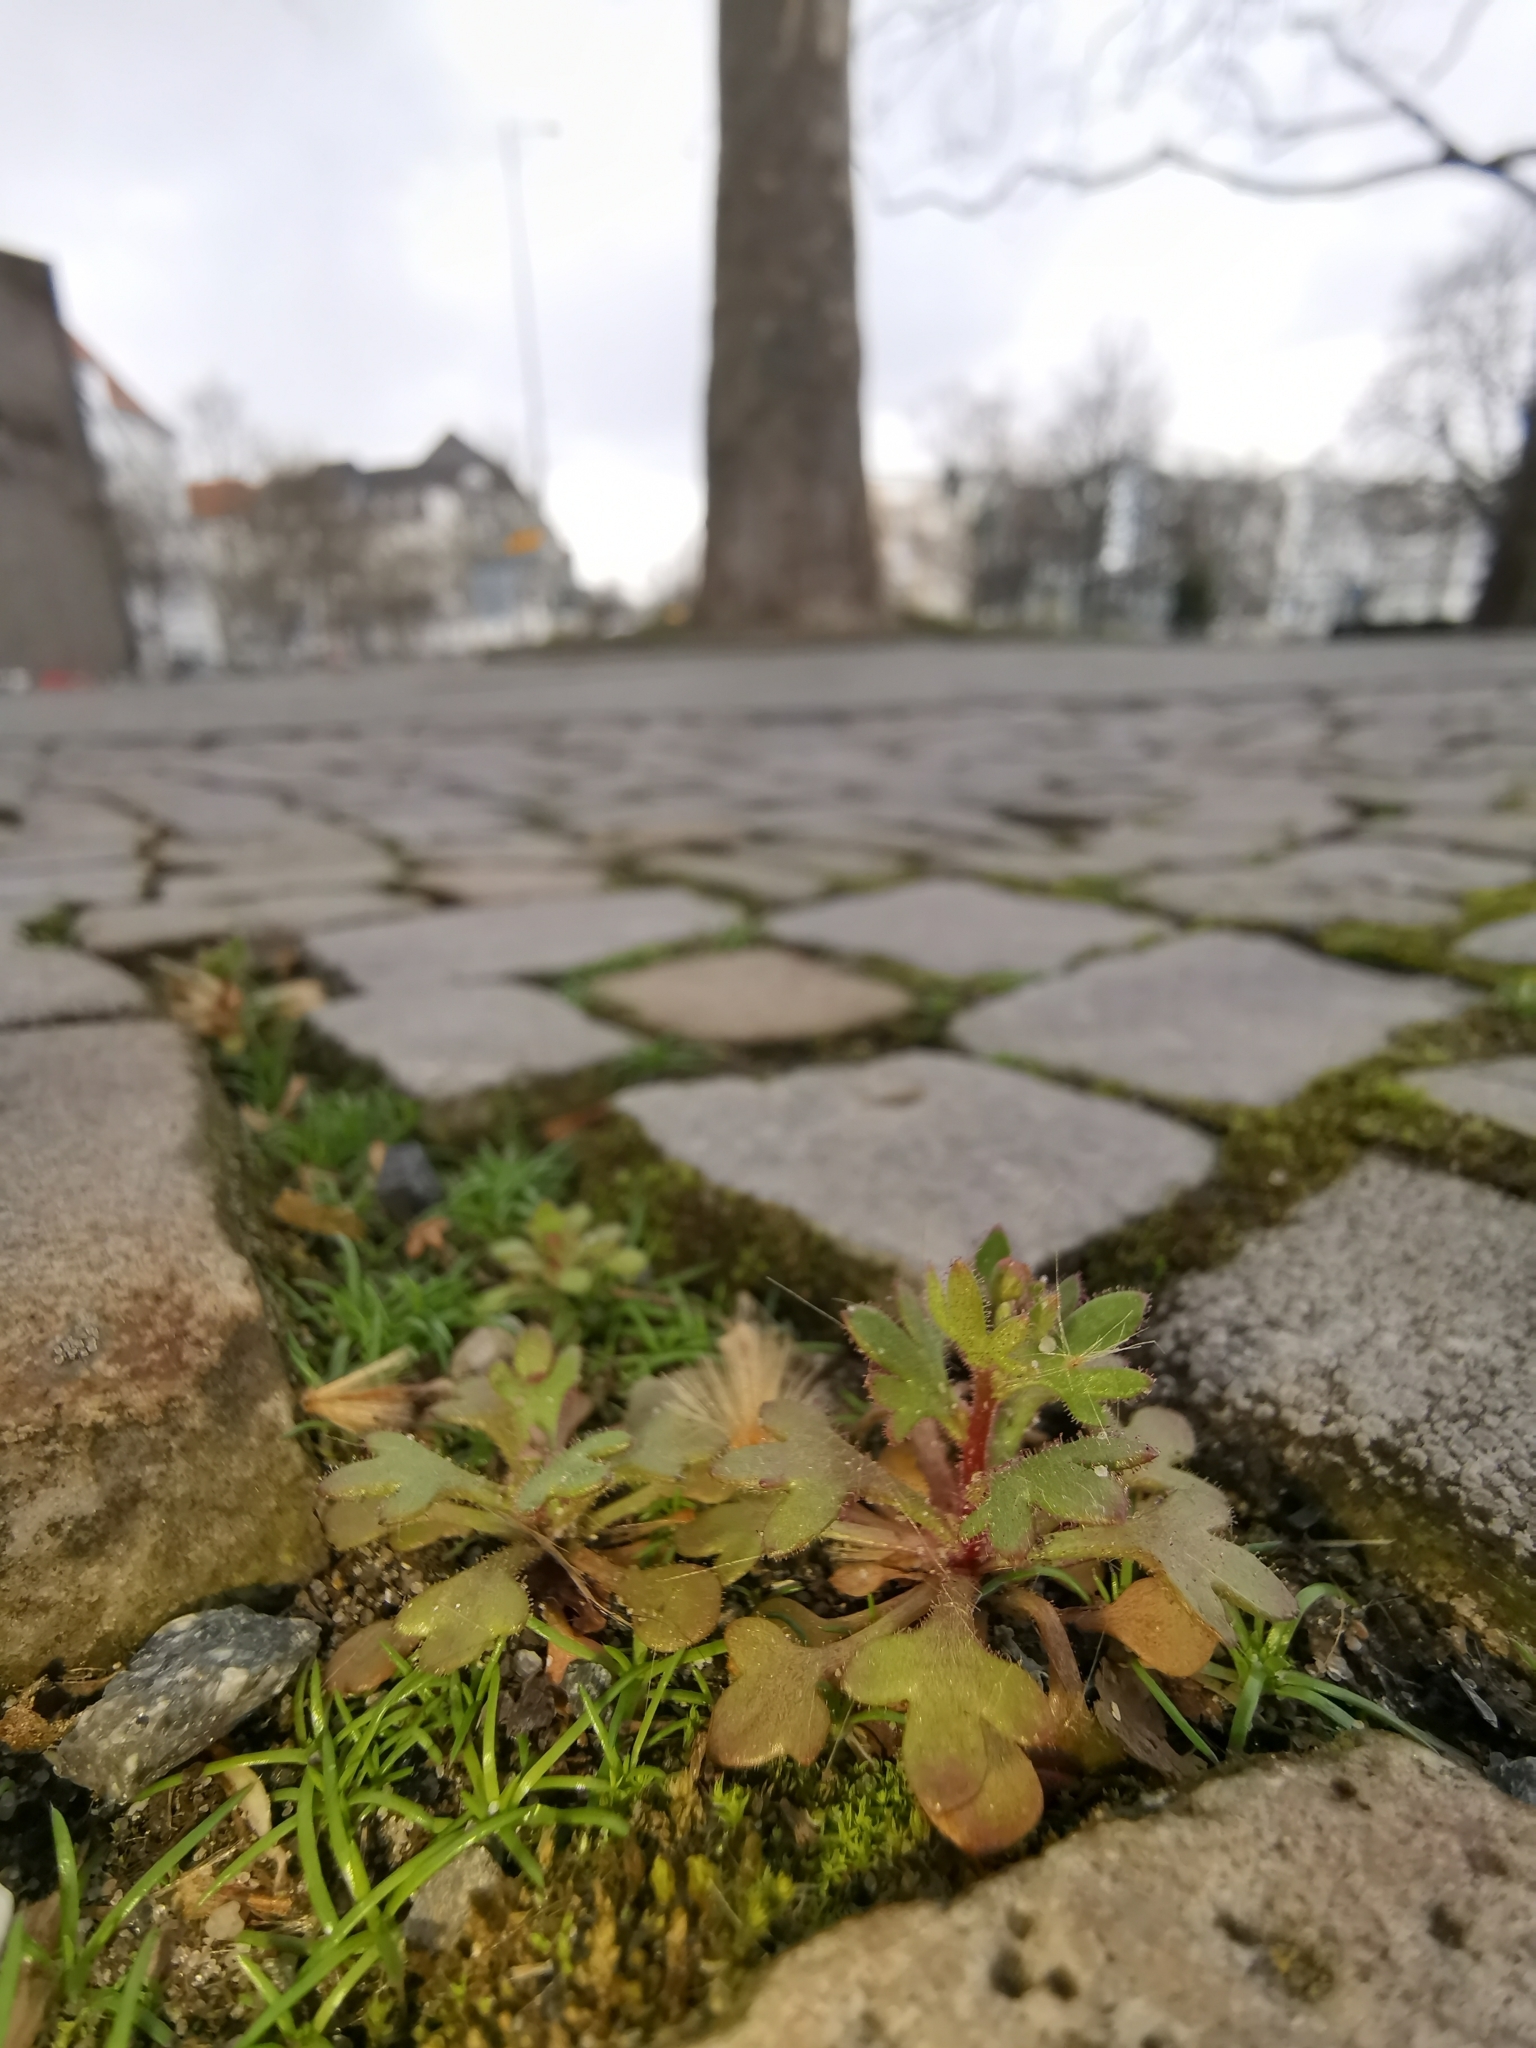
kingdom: Plantae
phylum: Tracheophyta
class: Magnoliopsida
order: Saxifragales
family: Saxifragaceae
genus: Saxifraga
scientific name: Saxifraga tridactylites
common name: Rue-leaved saxifrage
